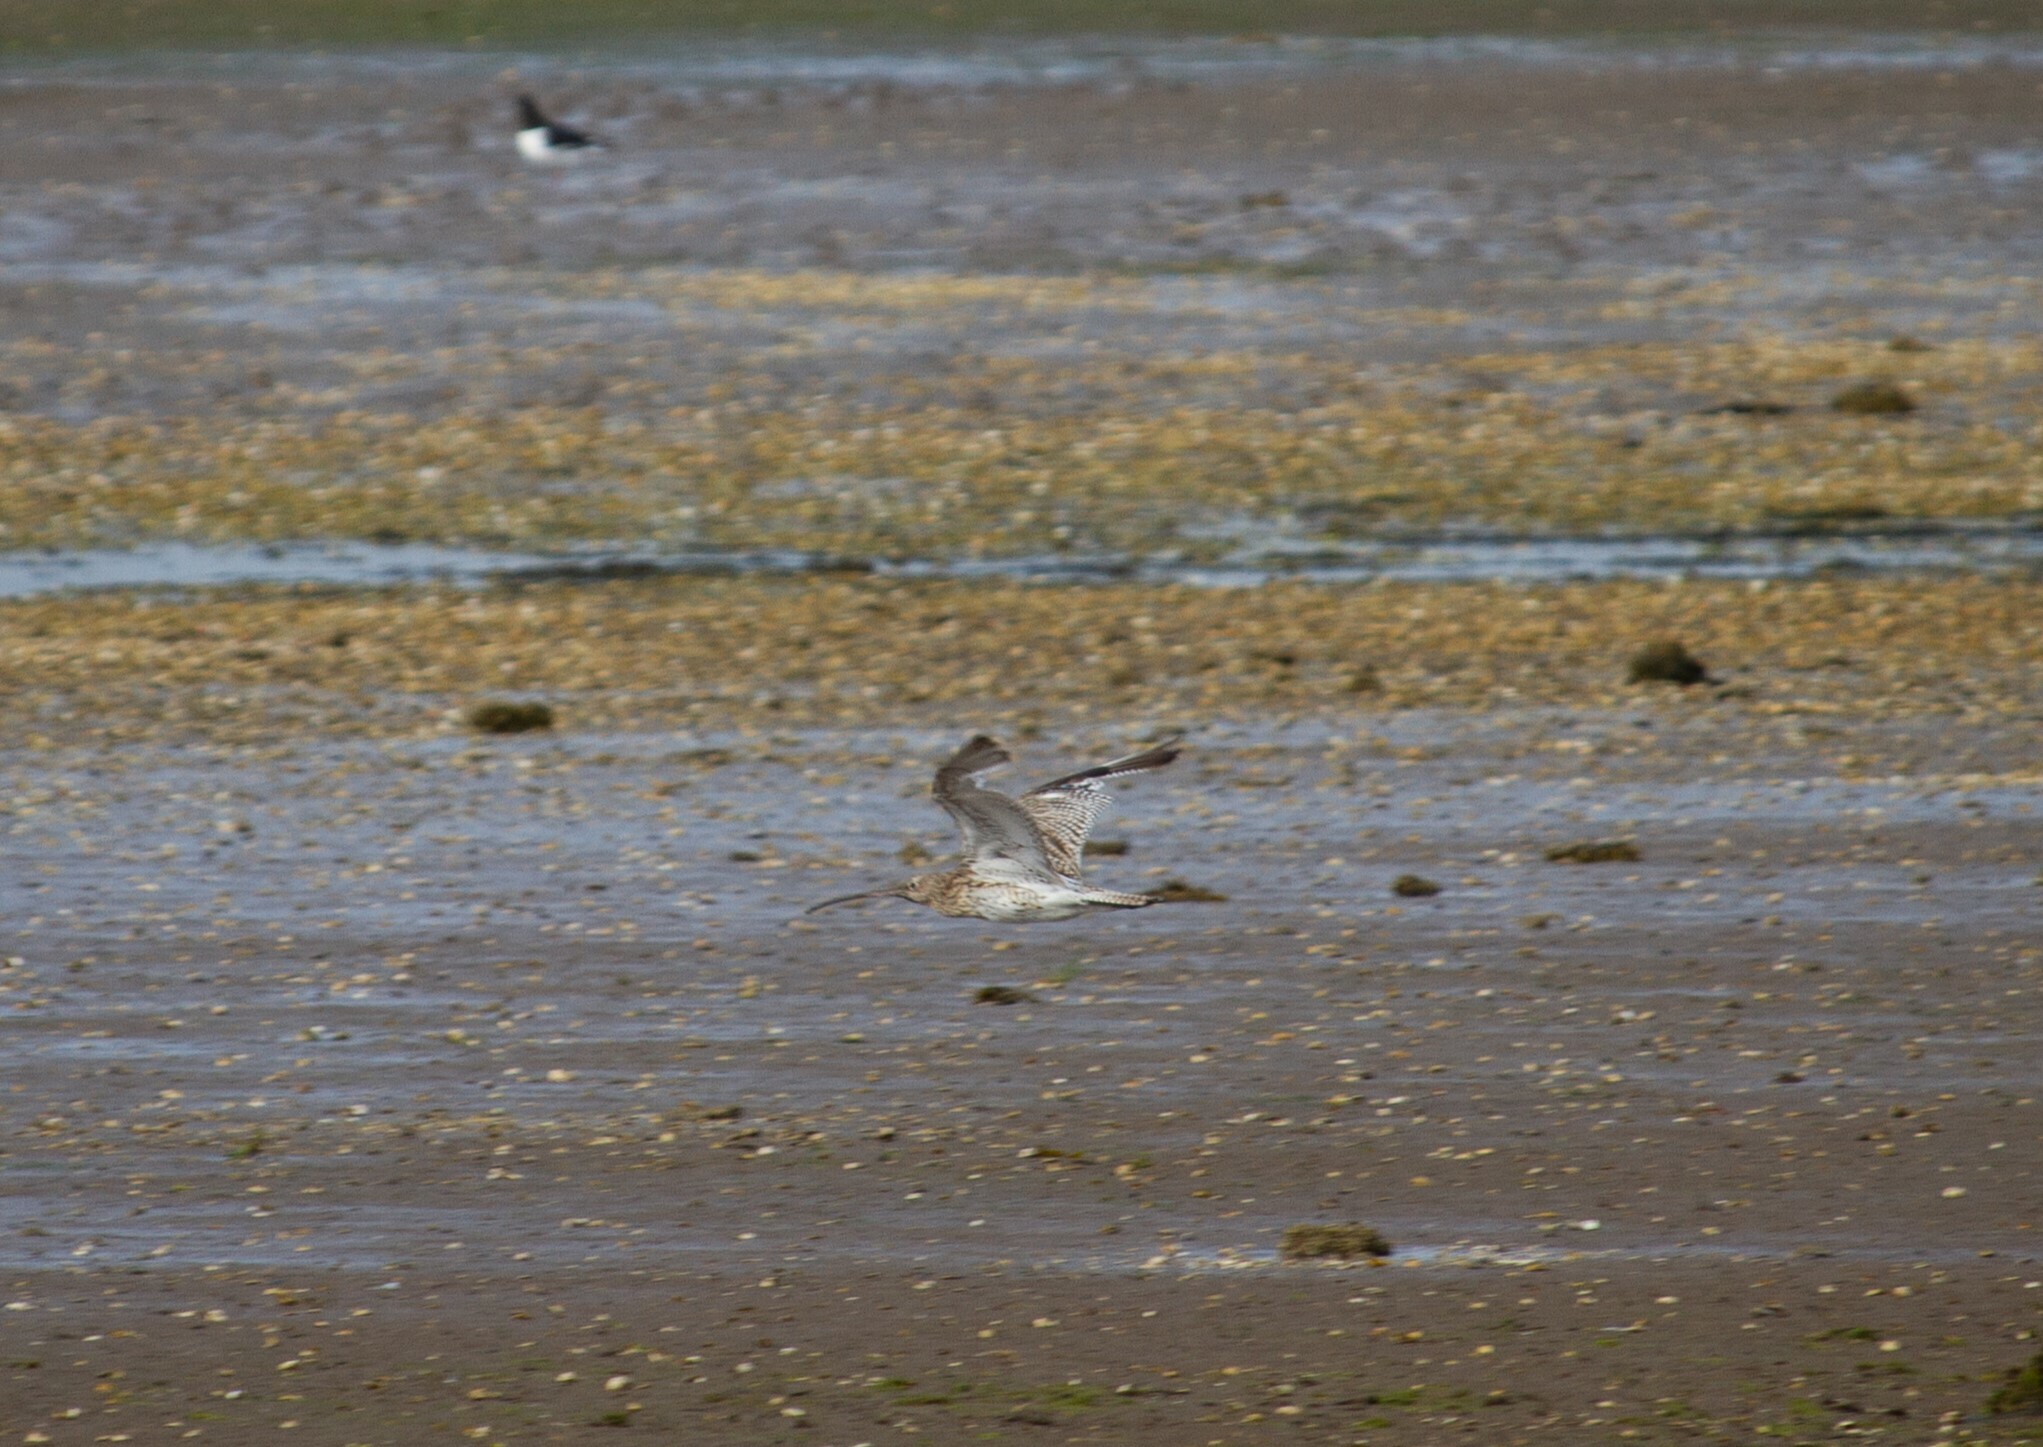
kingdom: Animalia
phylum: Chordata
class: Aves
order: Charadriiformes
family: Scolopacidae
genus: Numenius
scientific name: Numenius arquata
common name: Eurasian curlew
